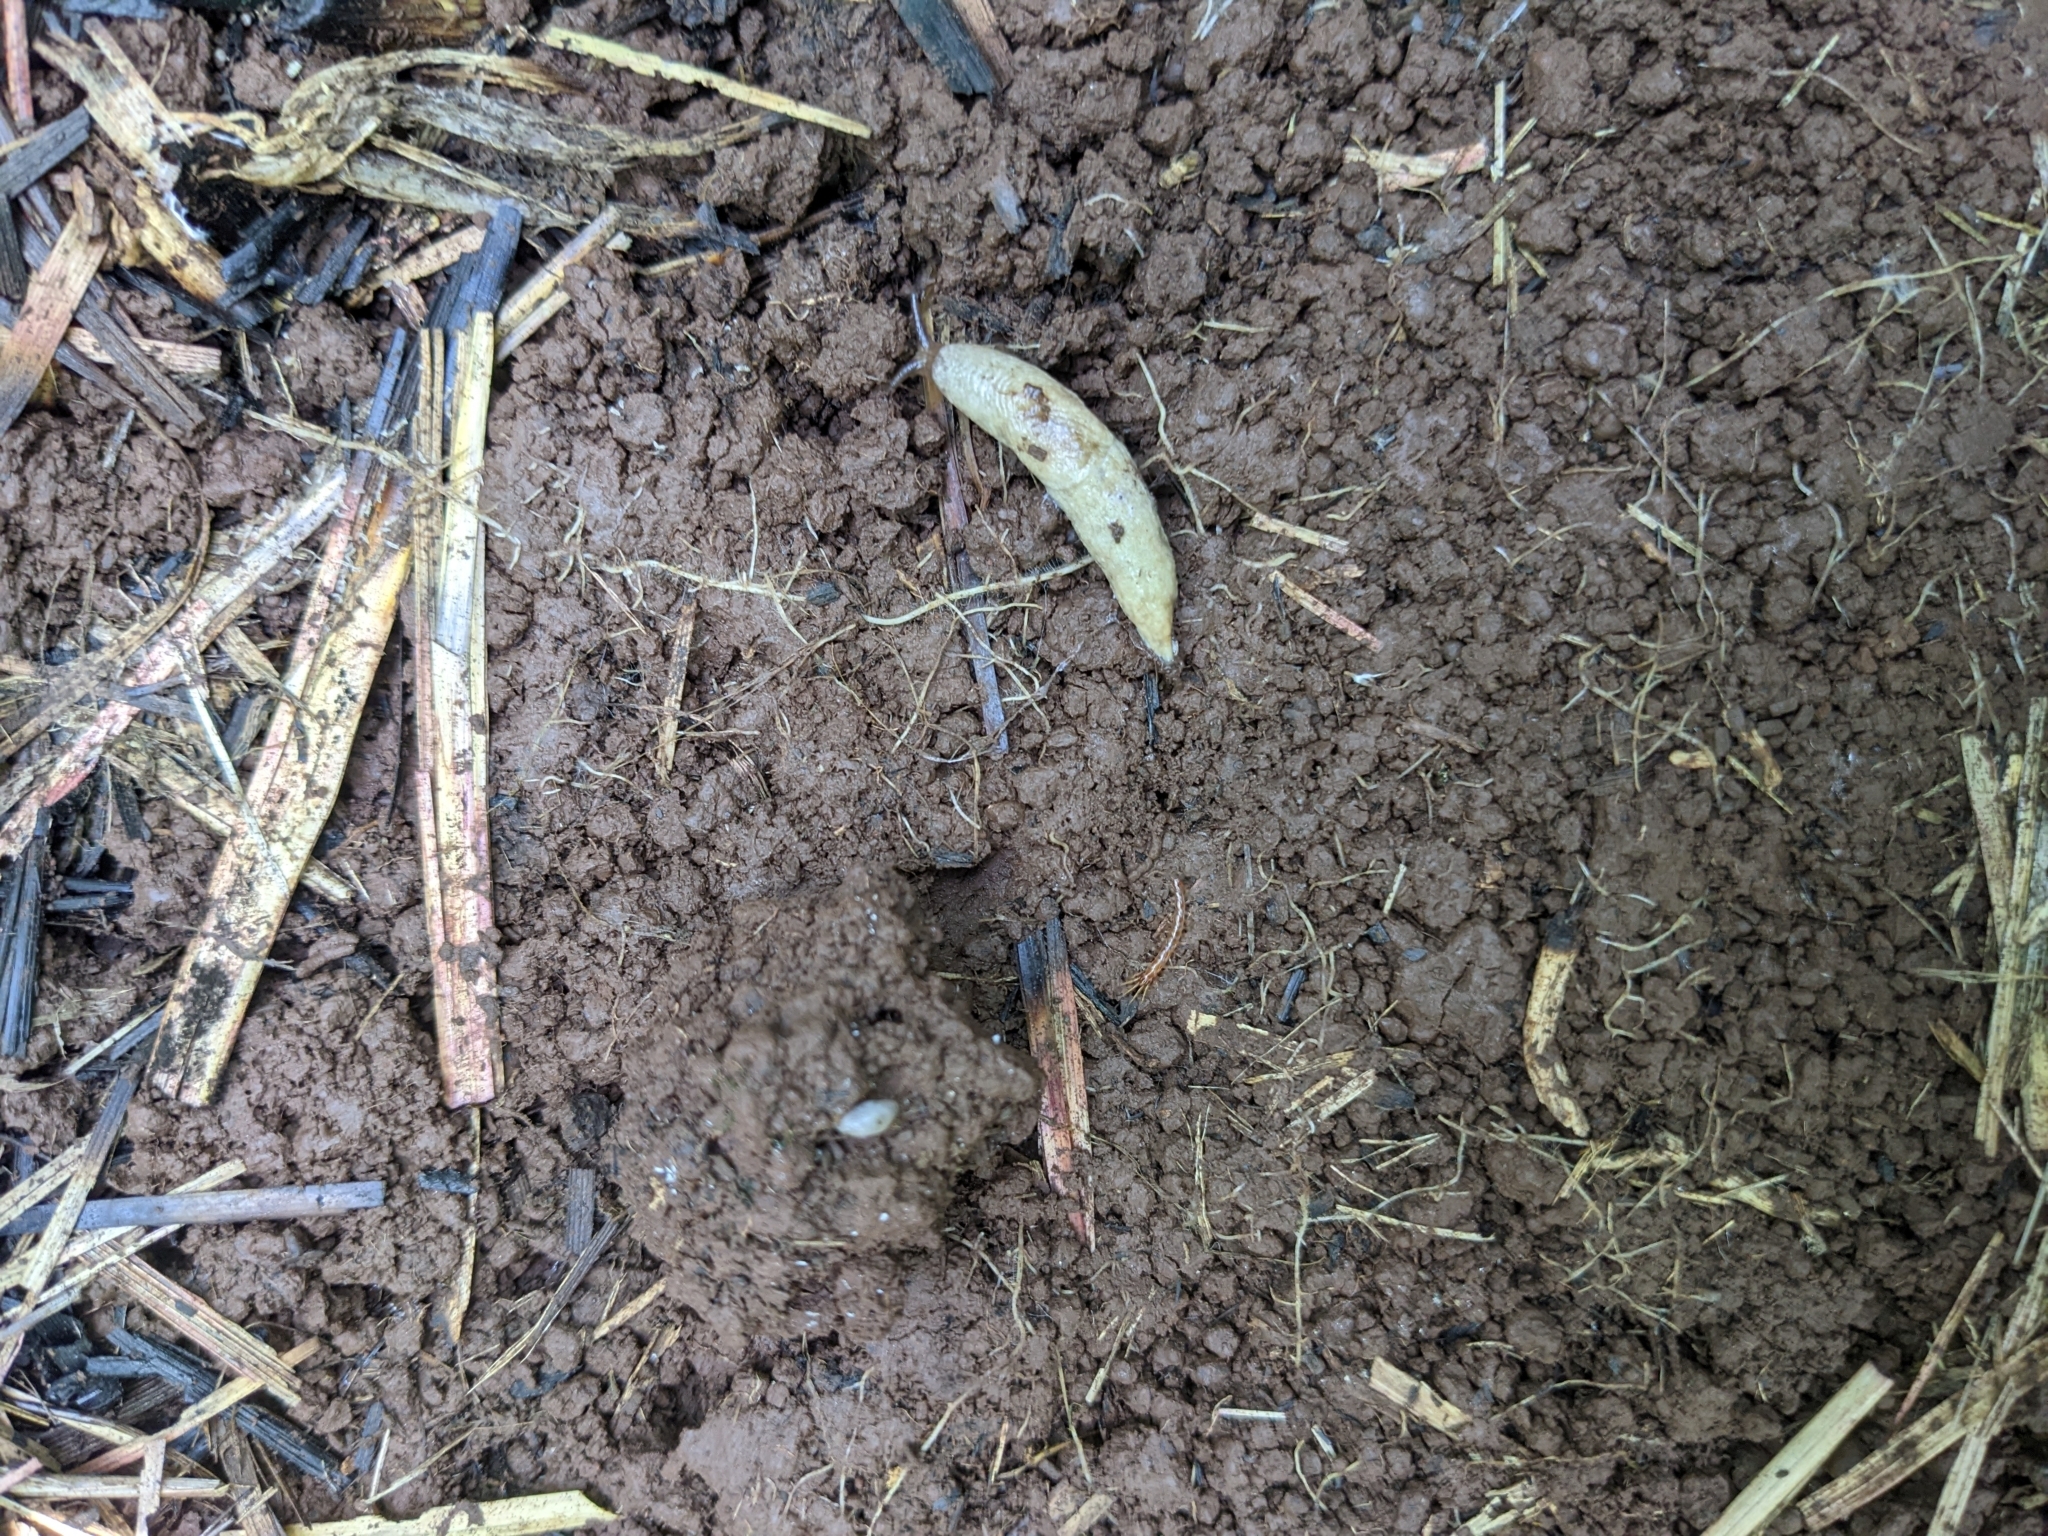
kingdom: Animalia
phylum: Mollusca
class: Gastropoda
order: Stylommatophora
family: Agriolimacidae
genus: Deroceras
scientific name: Deroceras reticulatum
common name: Gray field slug
